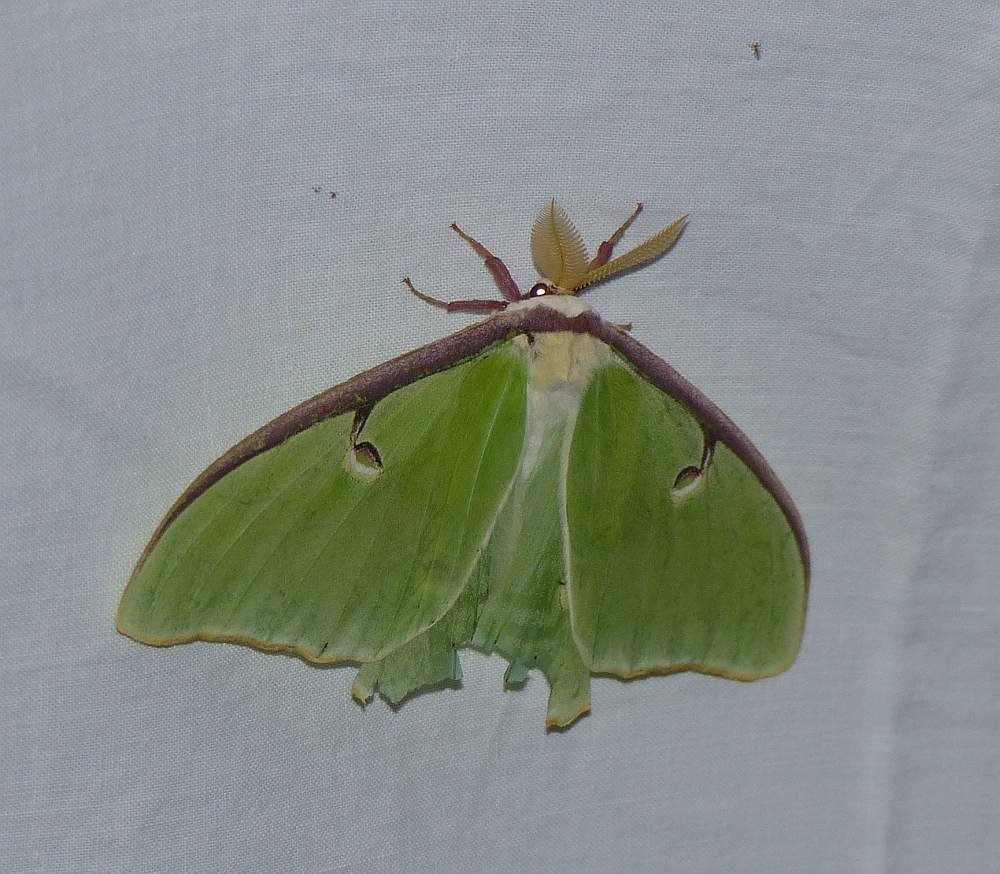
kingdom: Animalia
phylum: Arthropoda
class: Insecta
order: Lepidoptera
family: Saturniidae
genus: Actias
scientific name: Actias luna
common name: Luna moth
